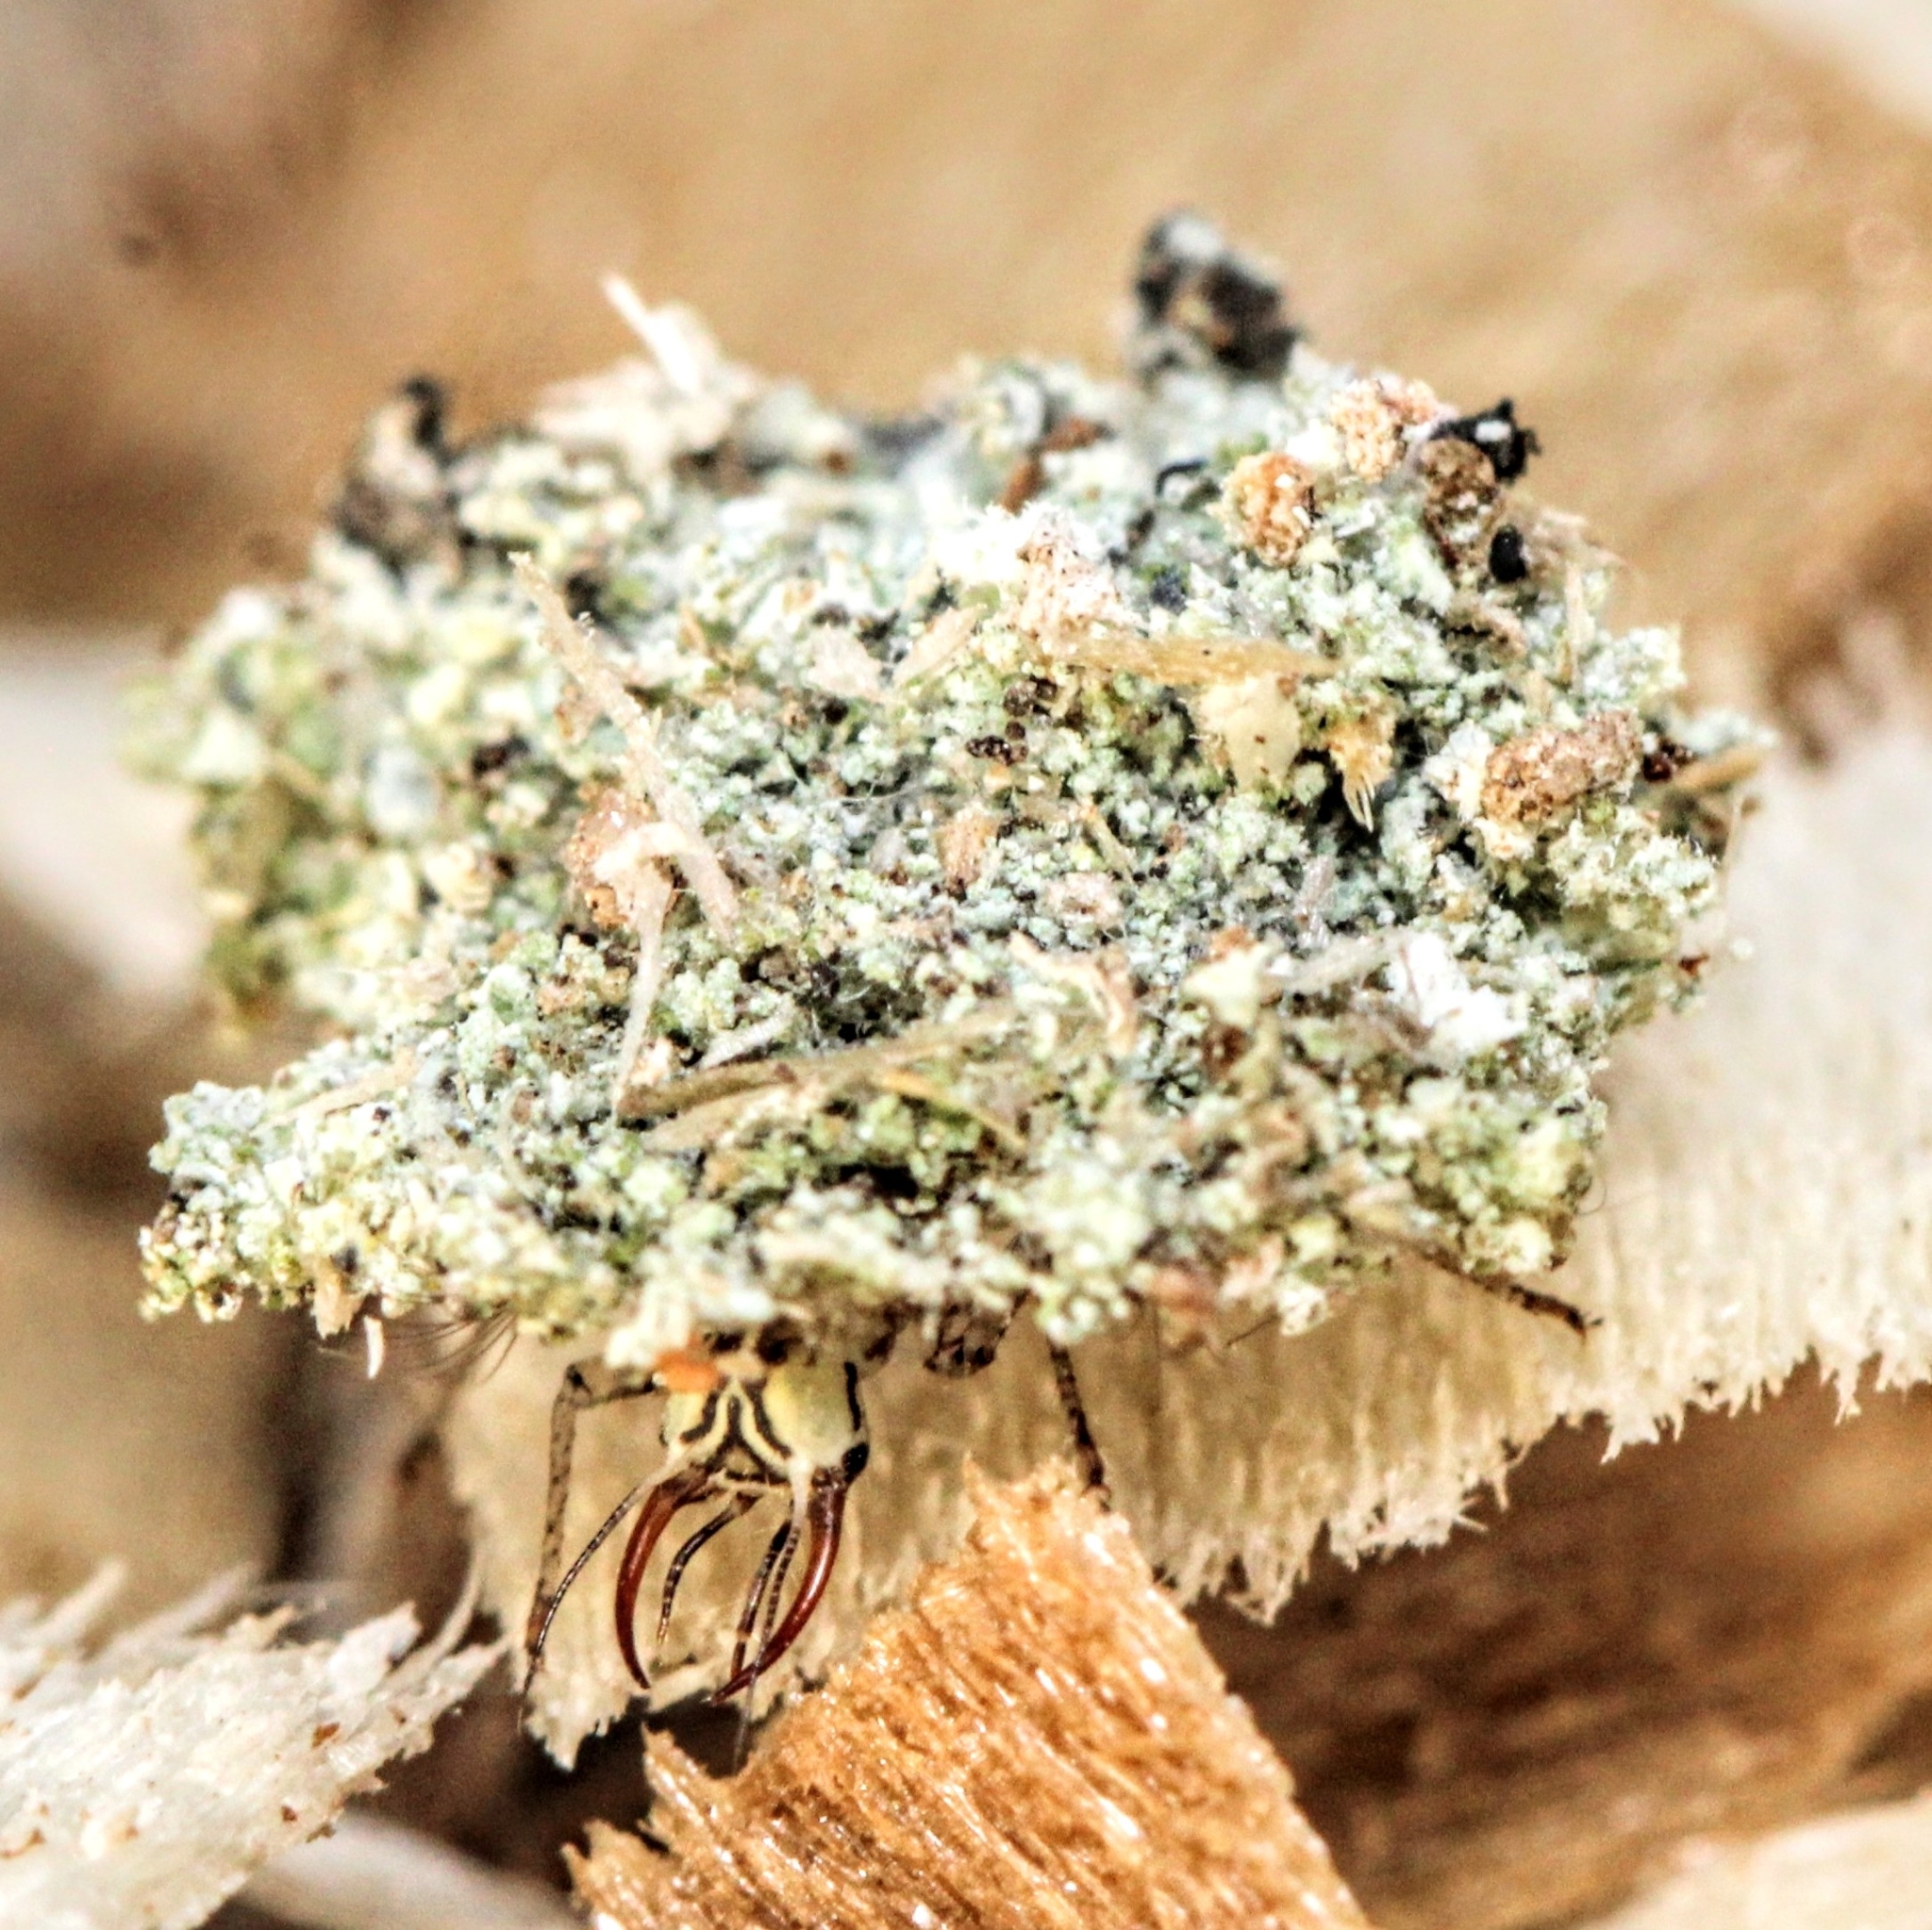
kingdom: Animalia
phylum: Arthropoda
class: Insecta
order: Neuroptera
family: Chrysopidae
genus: Leucochrysa
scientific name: Leucochrysa pavida
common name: Lichen-carrying green lacewing
